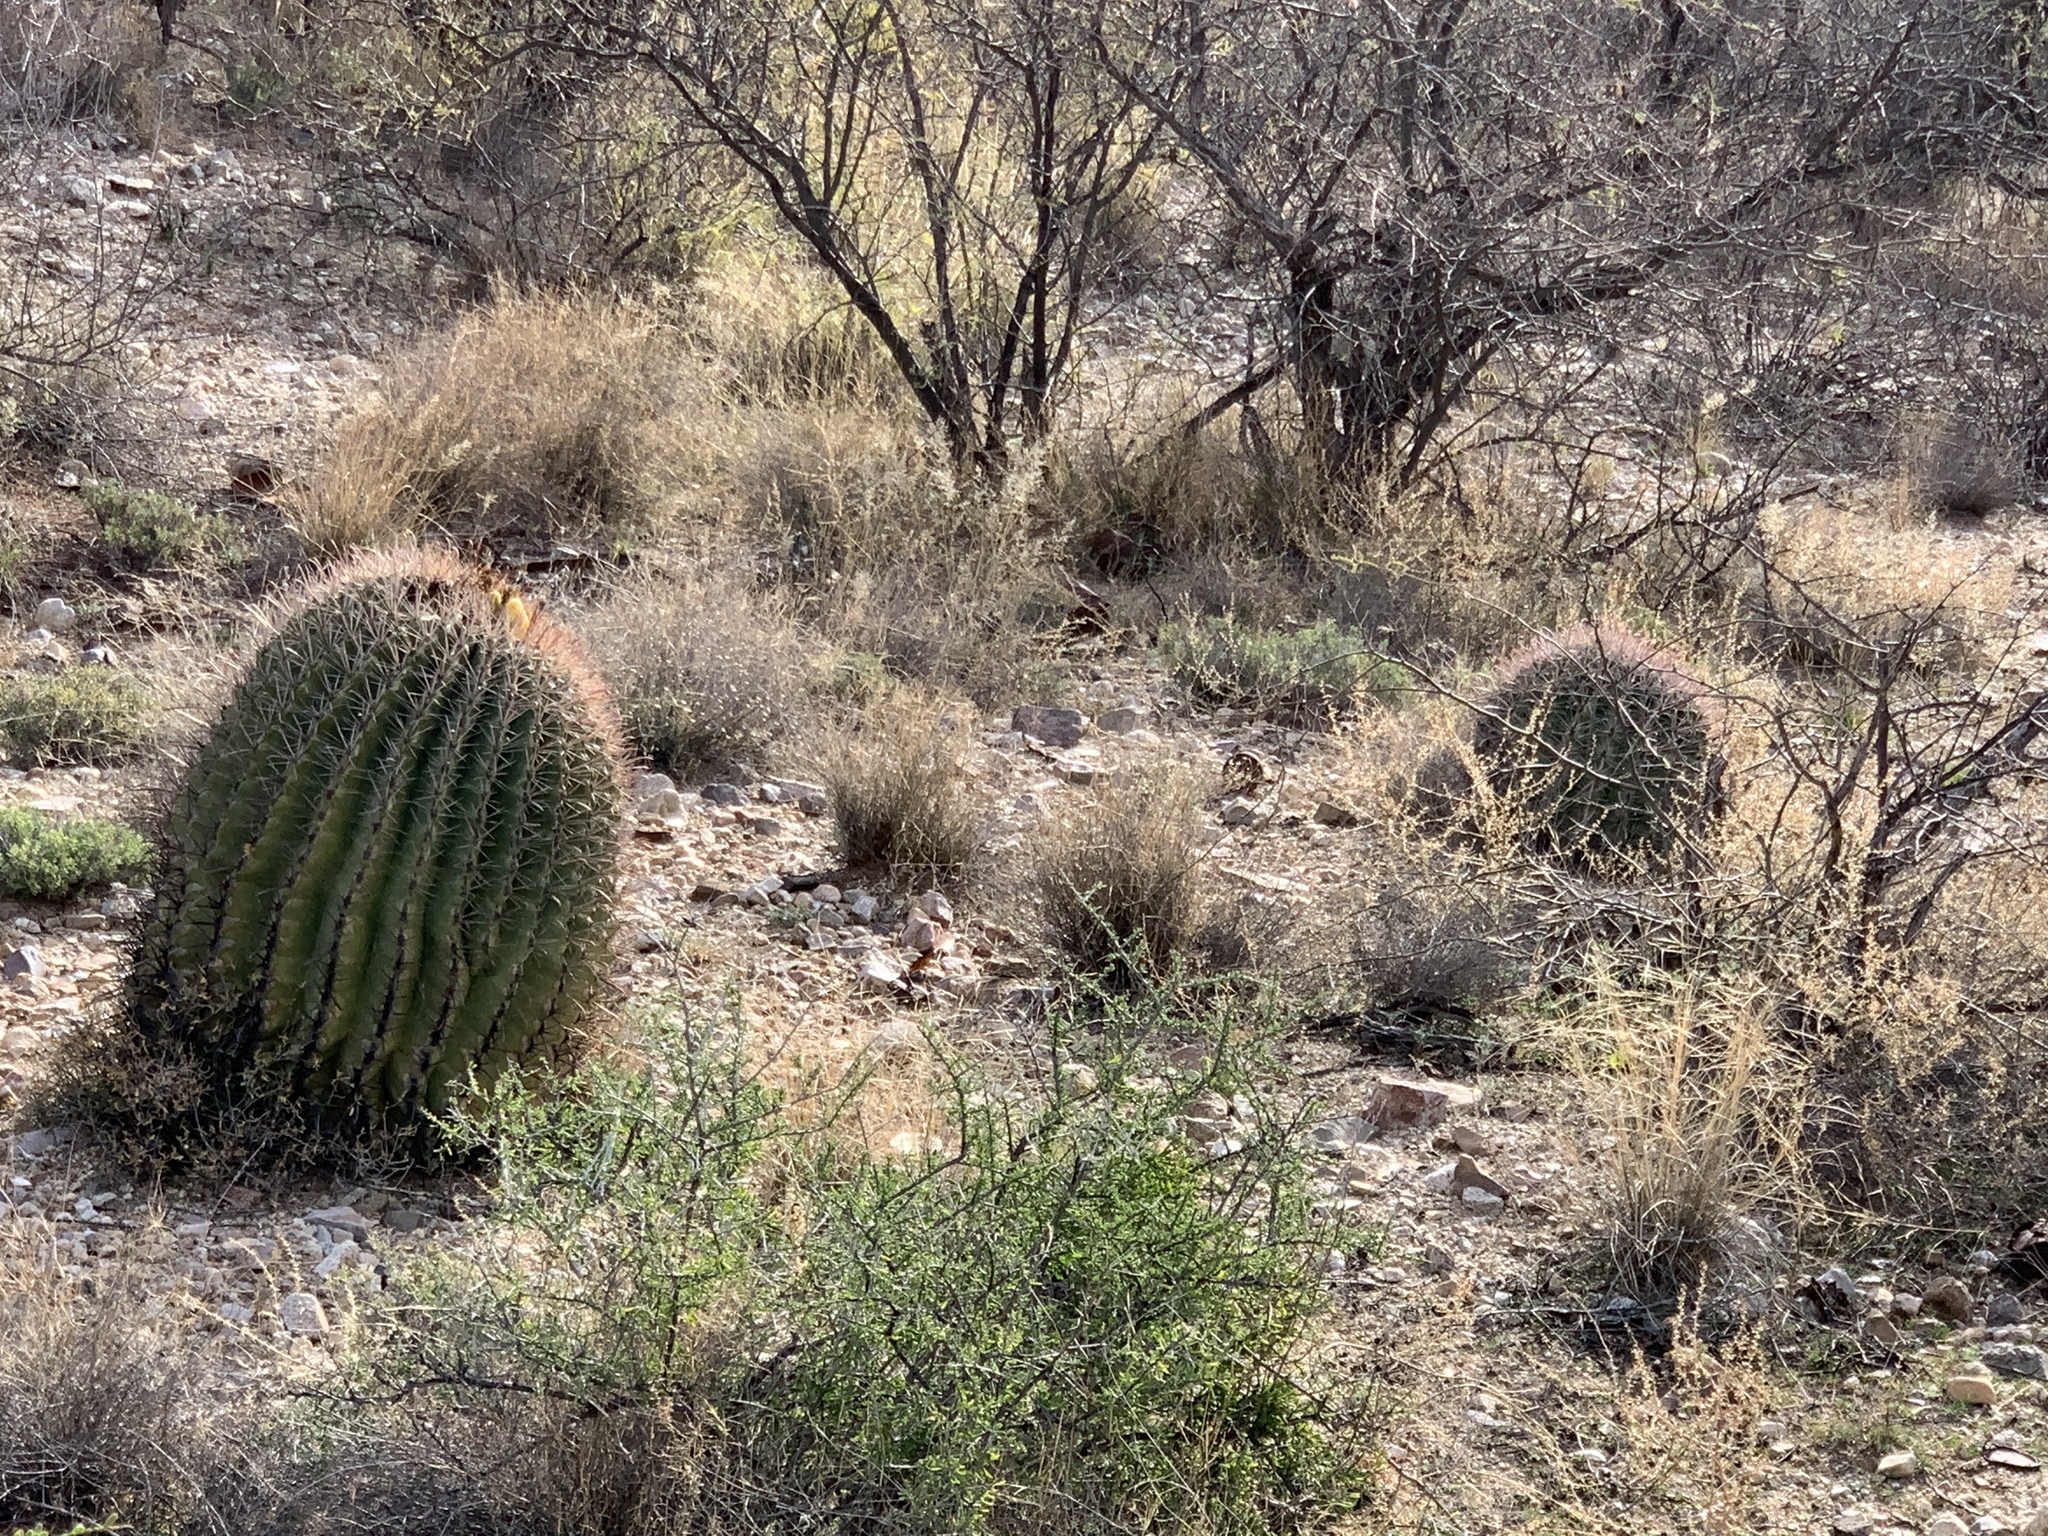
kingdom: Plantae
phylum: Tracheophyta
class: Magnoliopsida
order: Caryophyllales
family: Cactaceae
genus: Ferocactus
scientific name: Ferocactus wislizeni
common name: Candy barrel cactus
